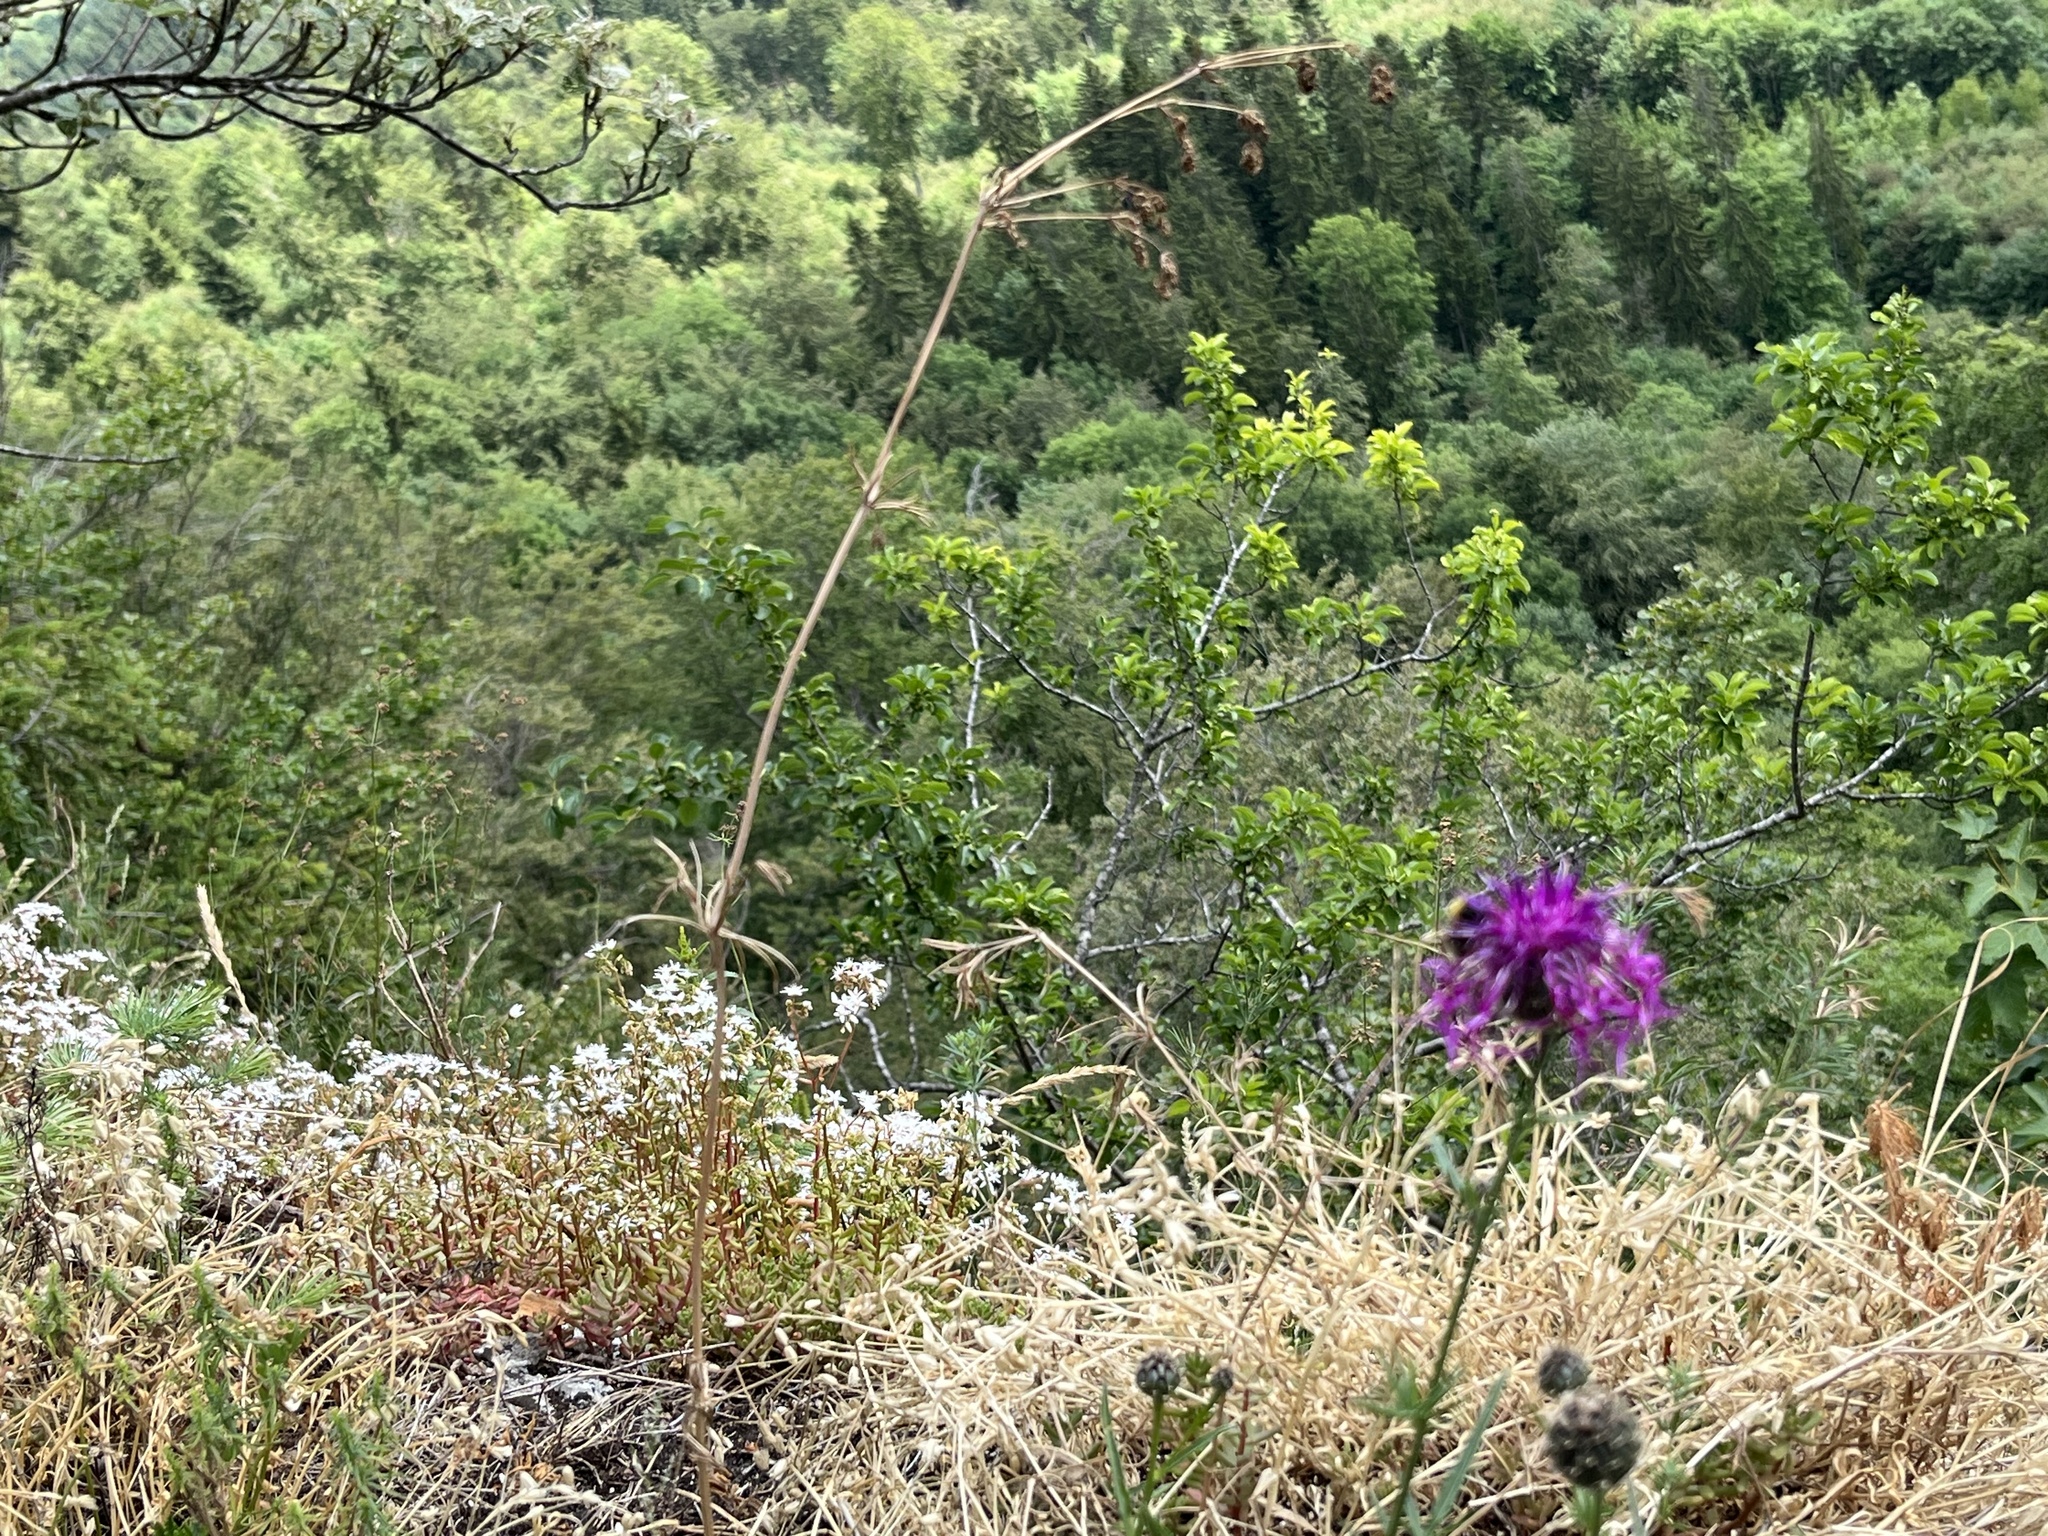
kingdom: Plantae
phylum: Tracheophyta
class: Magnoliopsida
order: Saxifragales
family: Crassulaceae
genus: Sedum
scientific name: Sedum album
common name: White stonecrop
